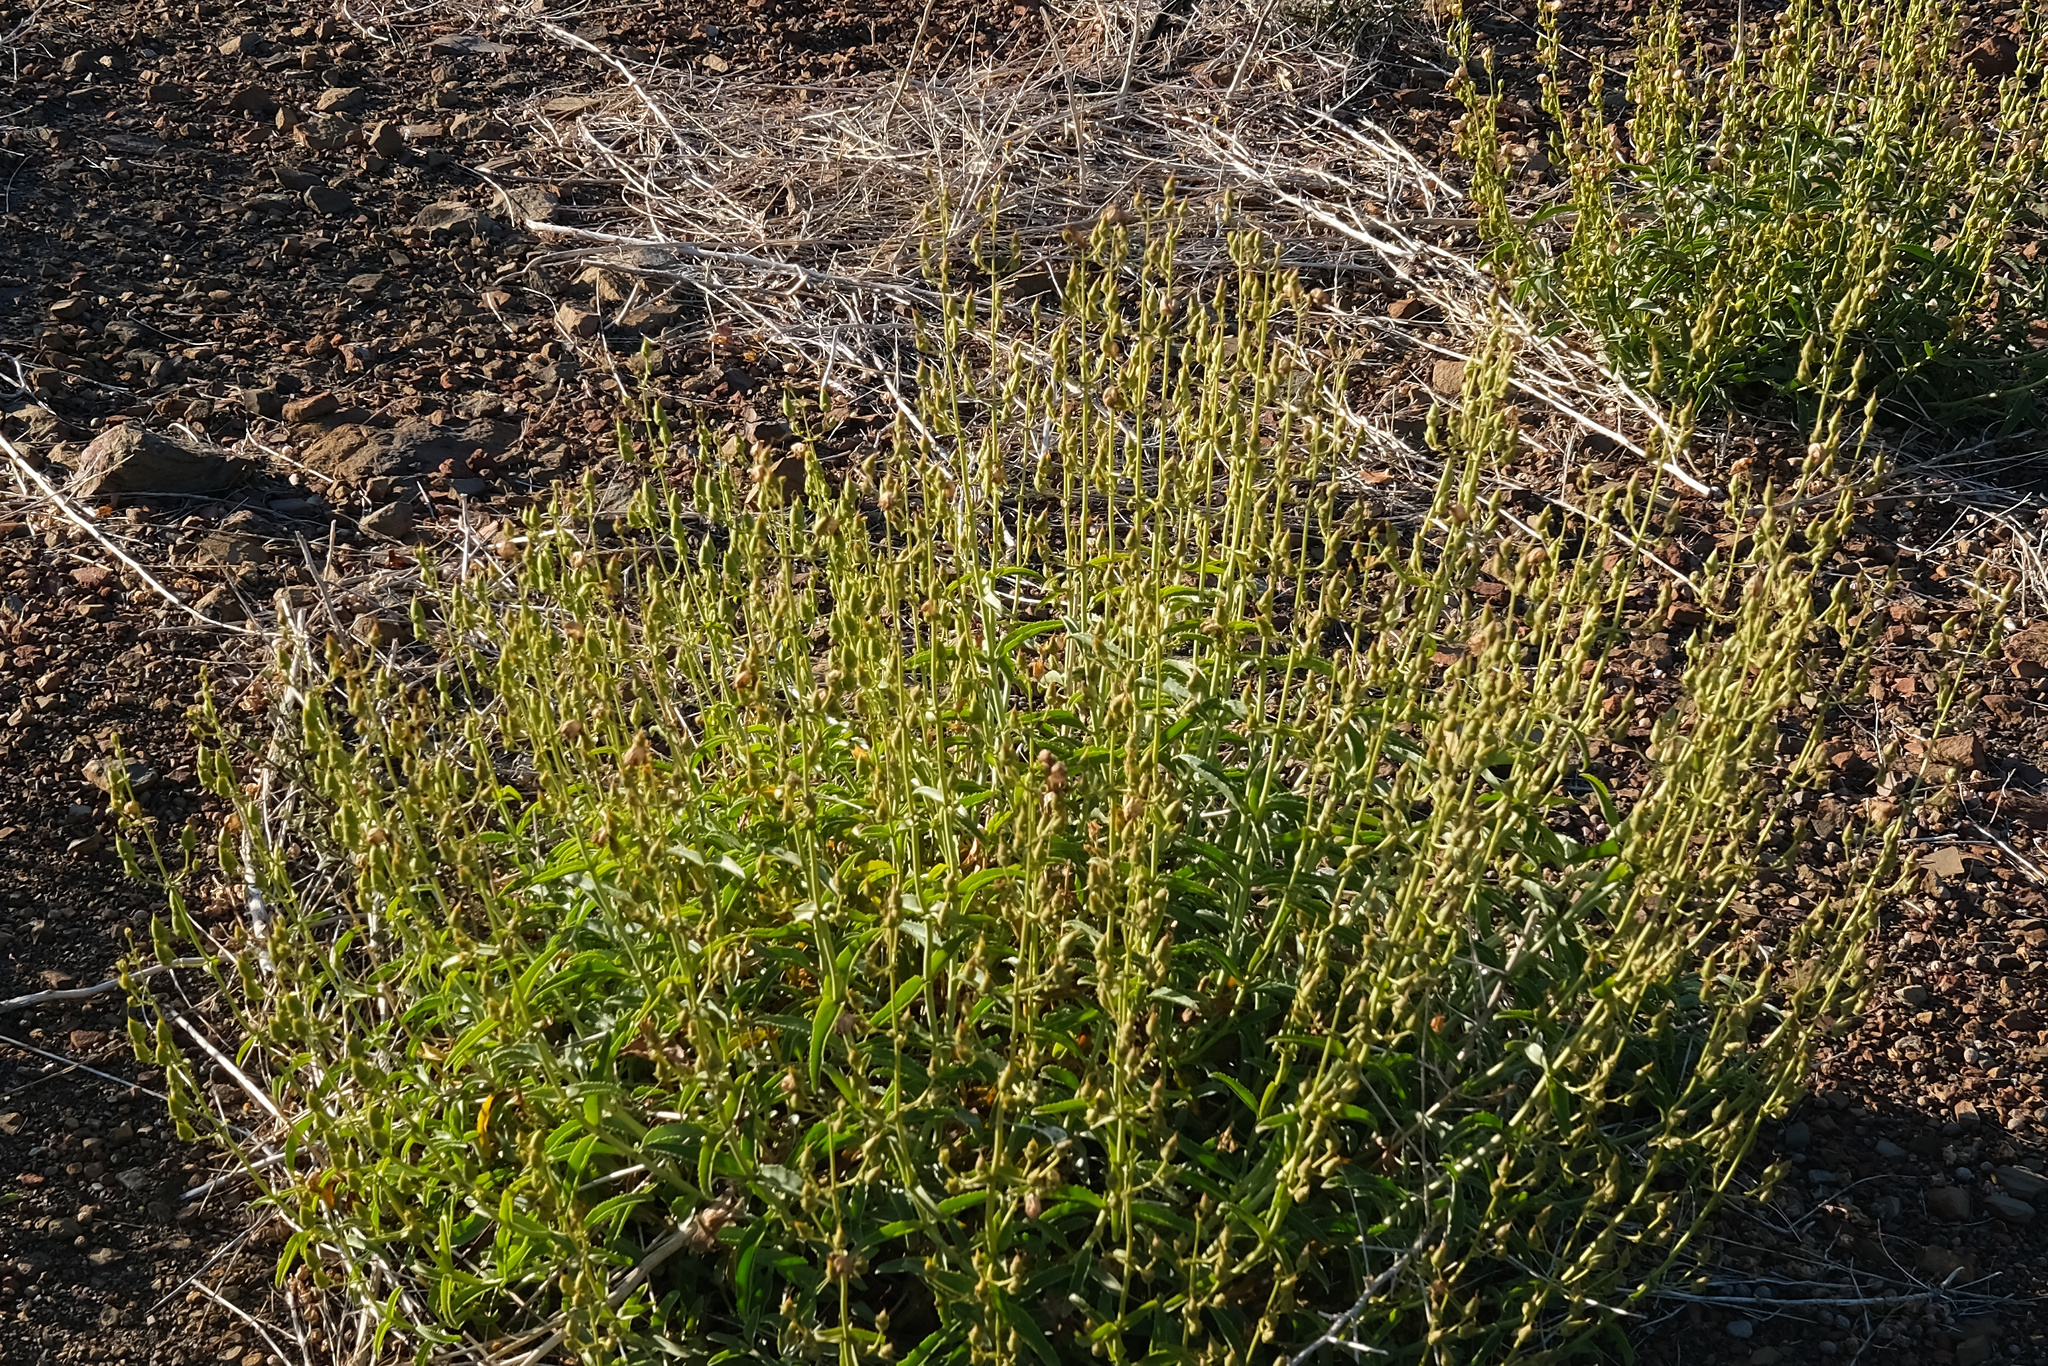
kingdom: Plantae
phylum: Tracheophyta
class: Magnoliopsida
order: Lamiales
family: Plantaginaceae
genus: Penstemon
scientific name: Penstemon grinnellii
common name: Grinnell's beardtongue
